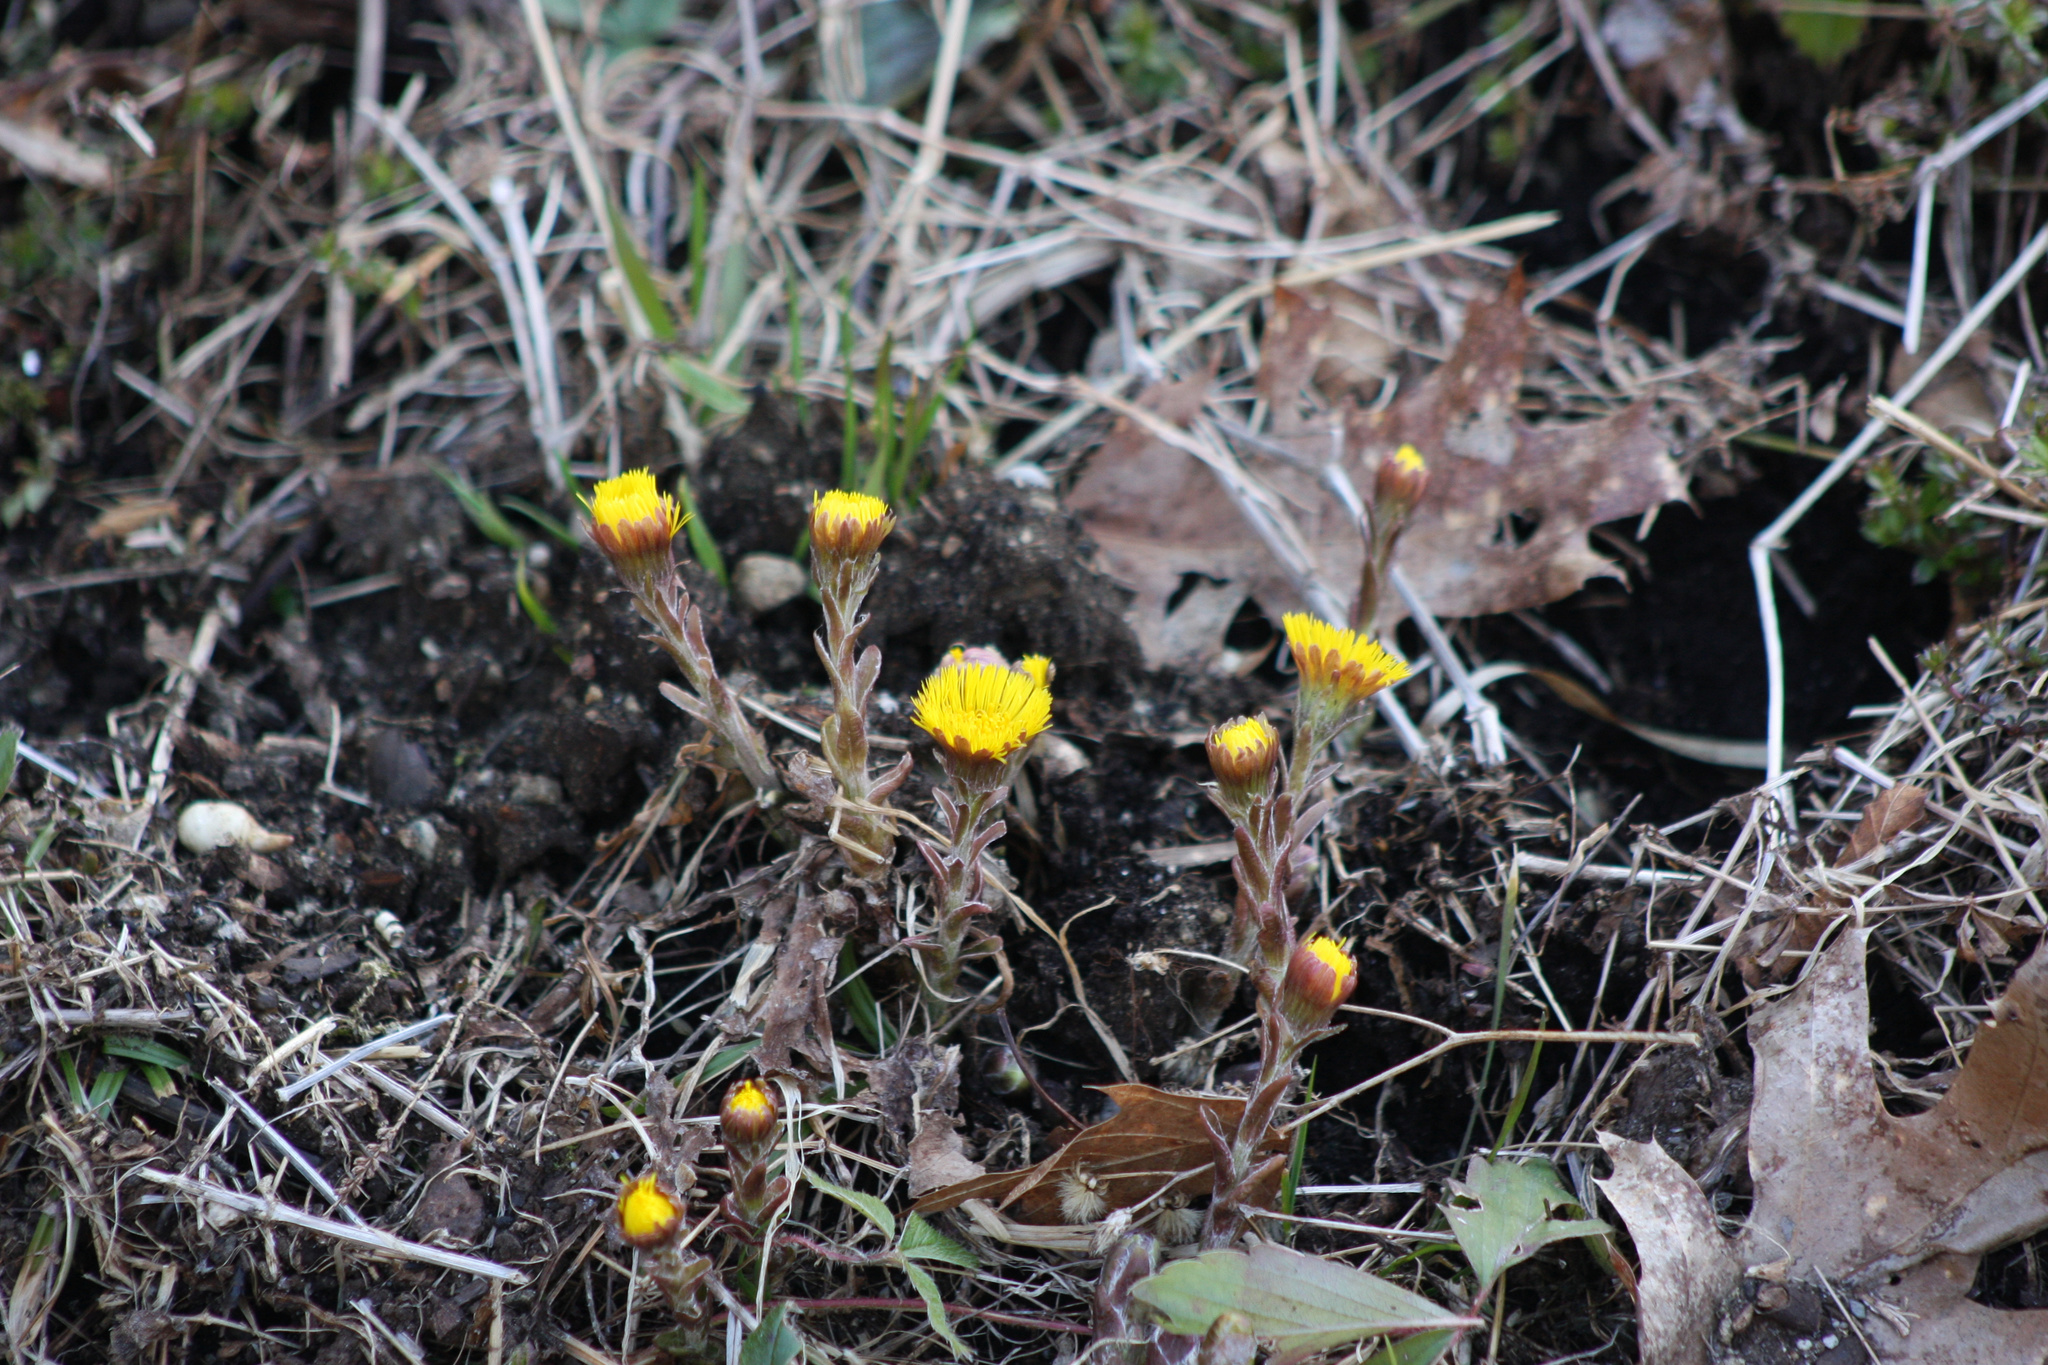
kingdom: Plantae
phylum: Tracheophyta
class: Magnoliopsida
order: Asterales
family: Asteraceae
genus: Tussilago
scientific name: Tussilago farfara
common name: Coltsfoot
